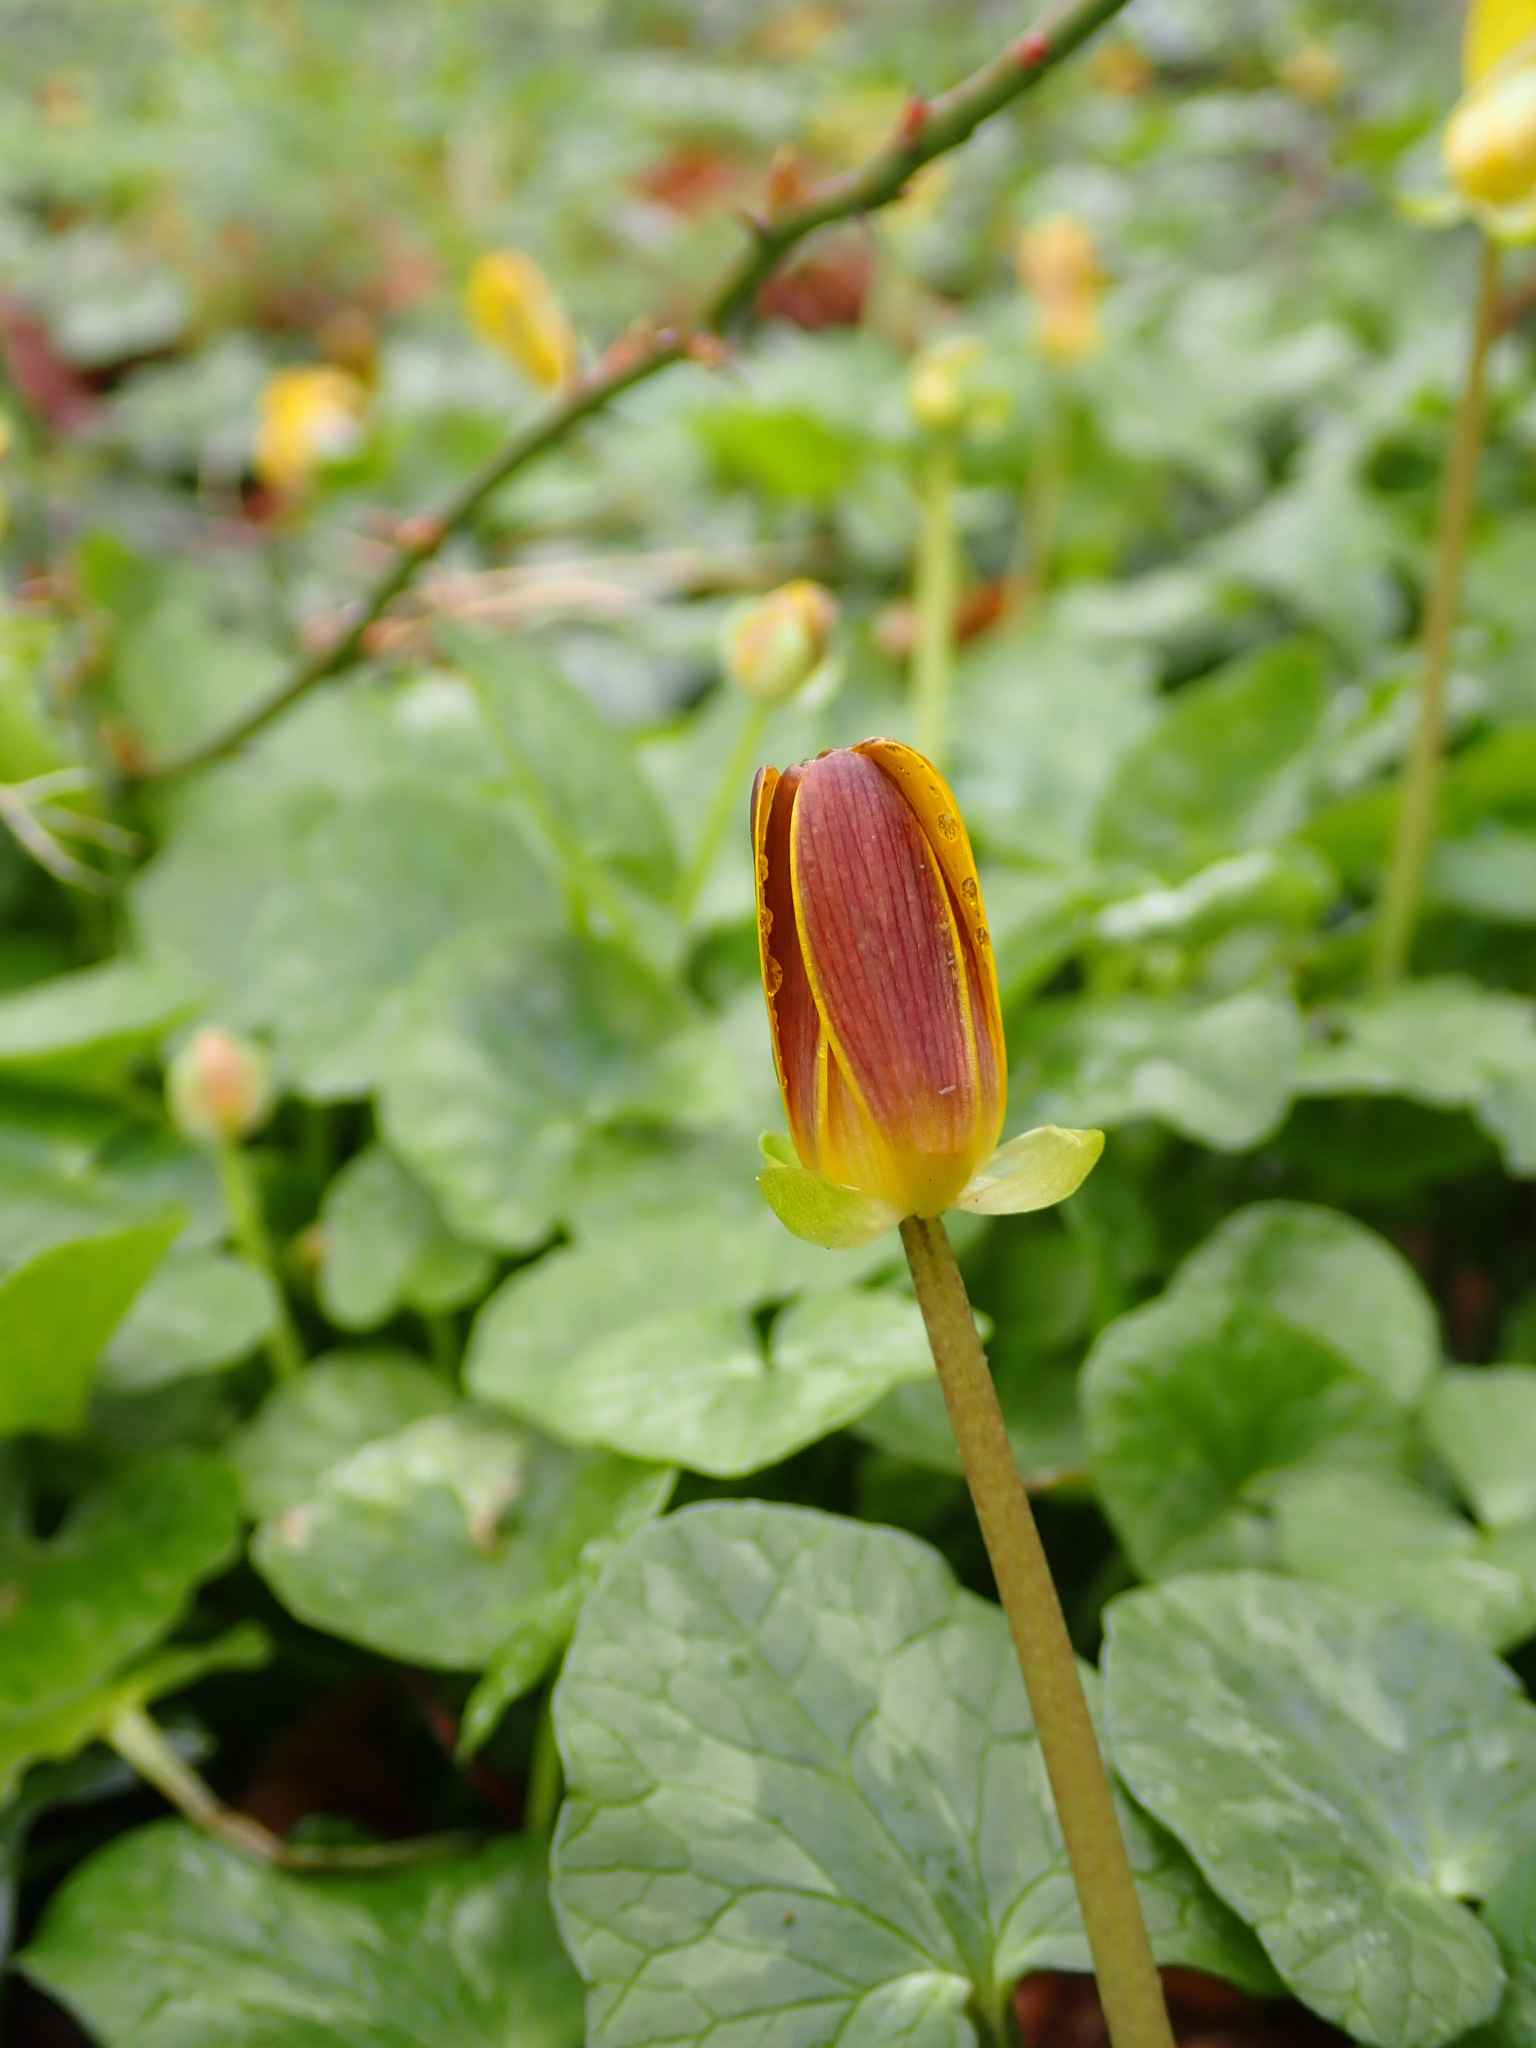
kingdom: Plantae
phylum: Tracheophyta
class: Magnoliopsida
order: Ranunculales
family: Ranunculaceae
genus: Ficaria
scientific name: Ficaria verna
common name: Lesser celandine
